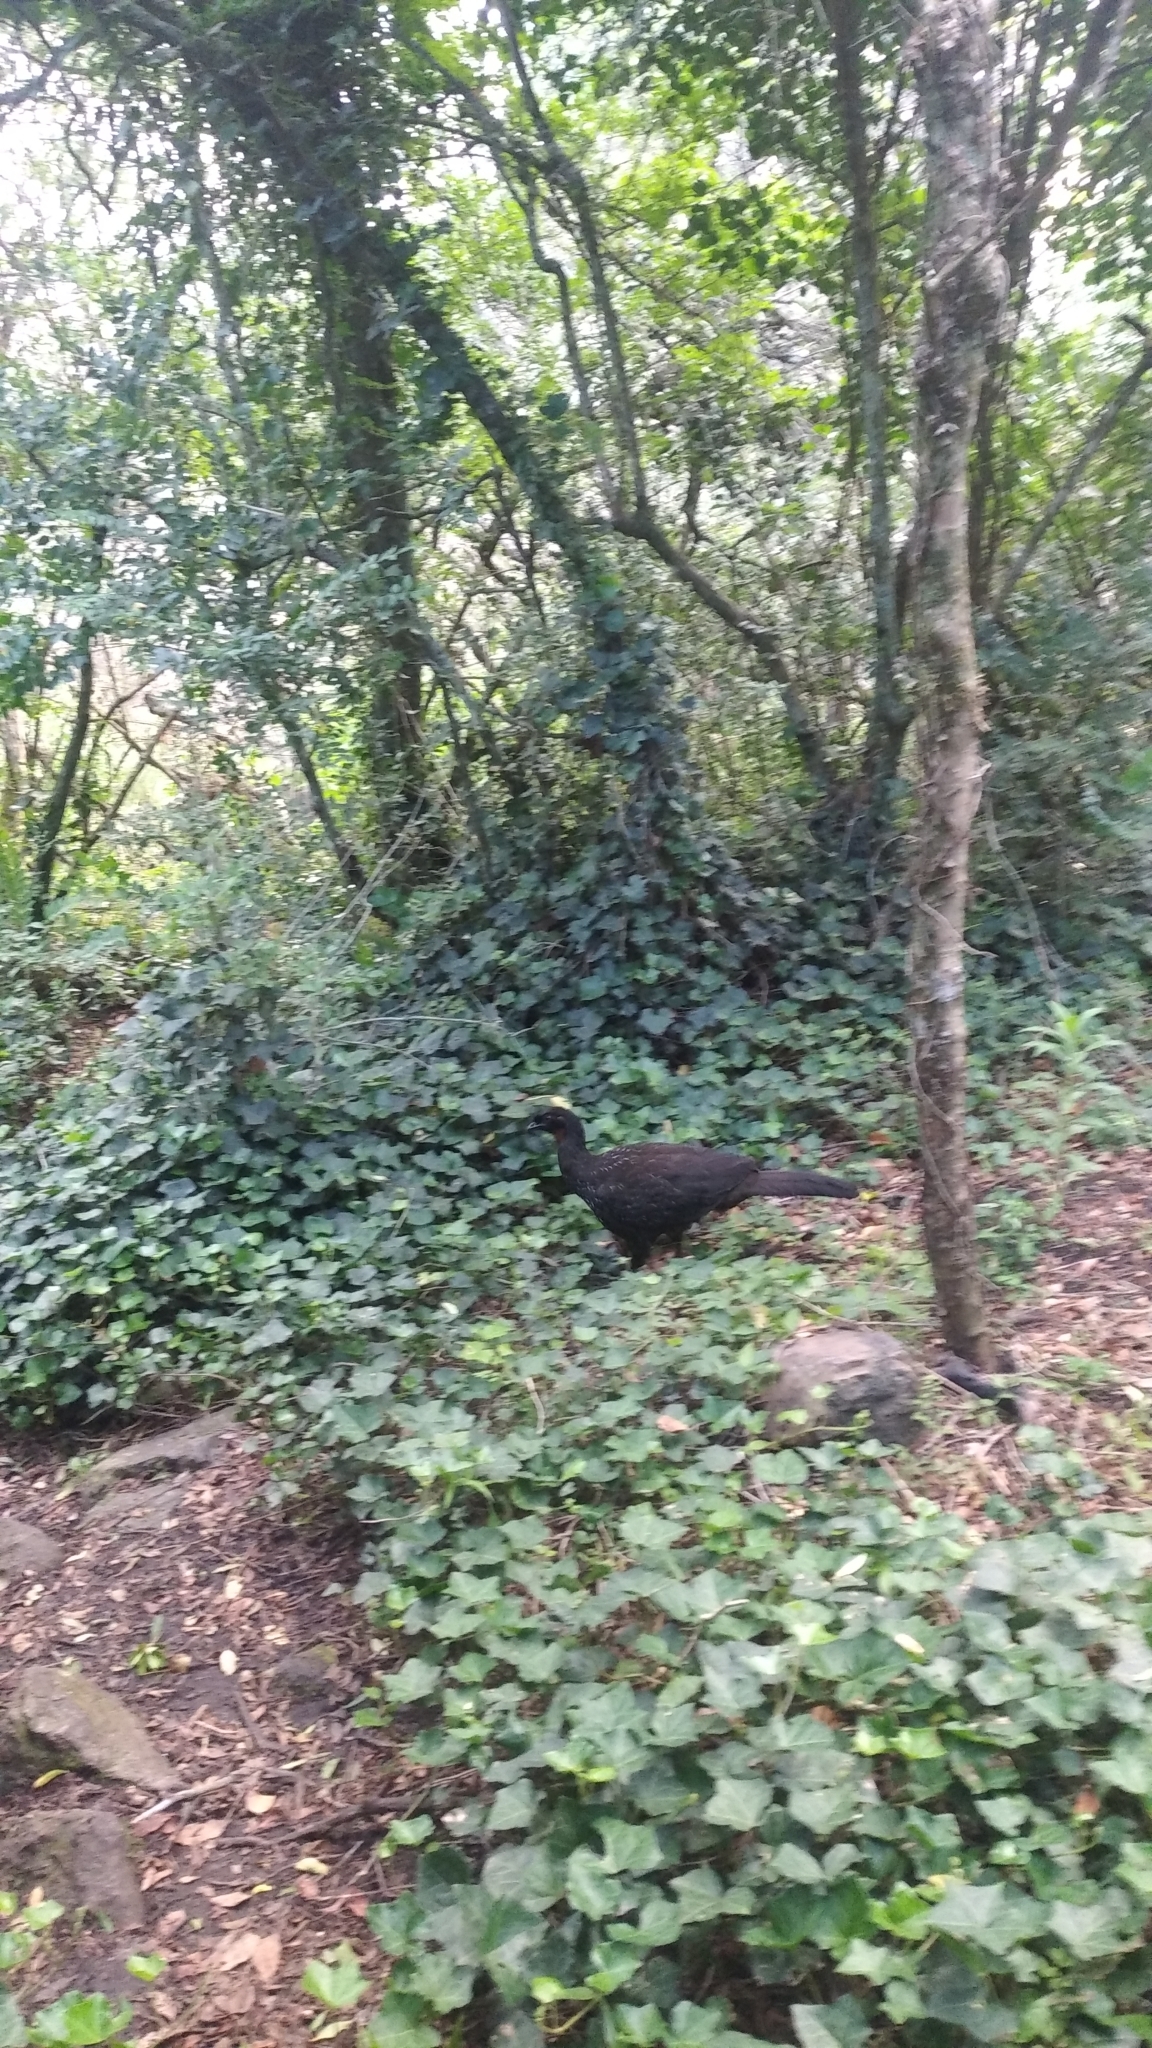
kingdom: Animalia
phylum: Chordata
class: Aves
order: Galliformes
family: Cracidae
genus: Penelope
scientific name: Penelope obscura
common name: Dusky-legged guan
